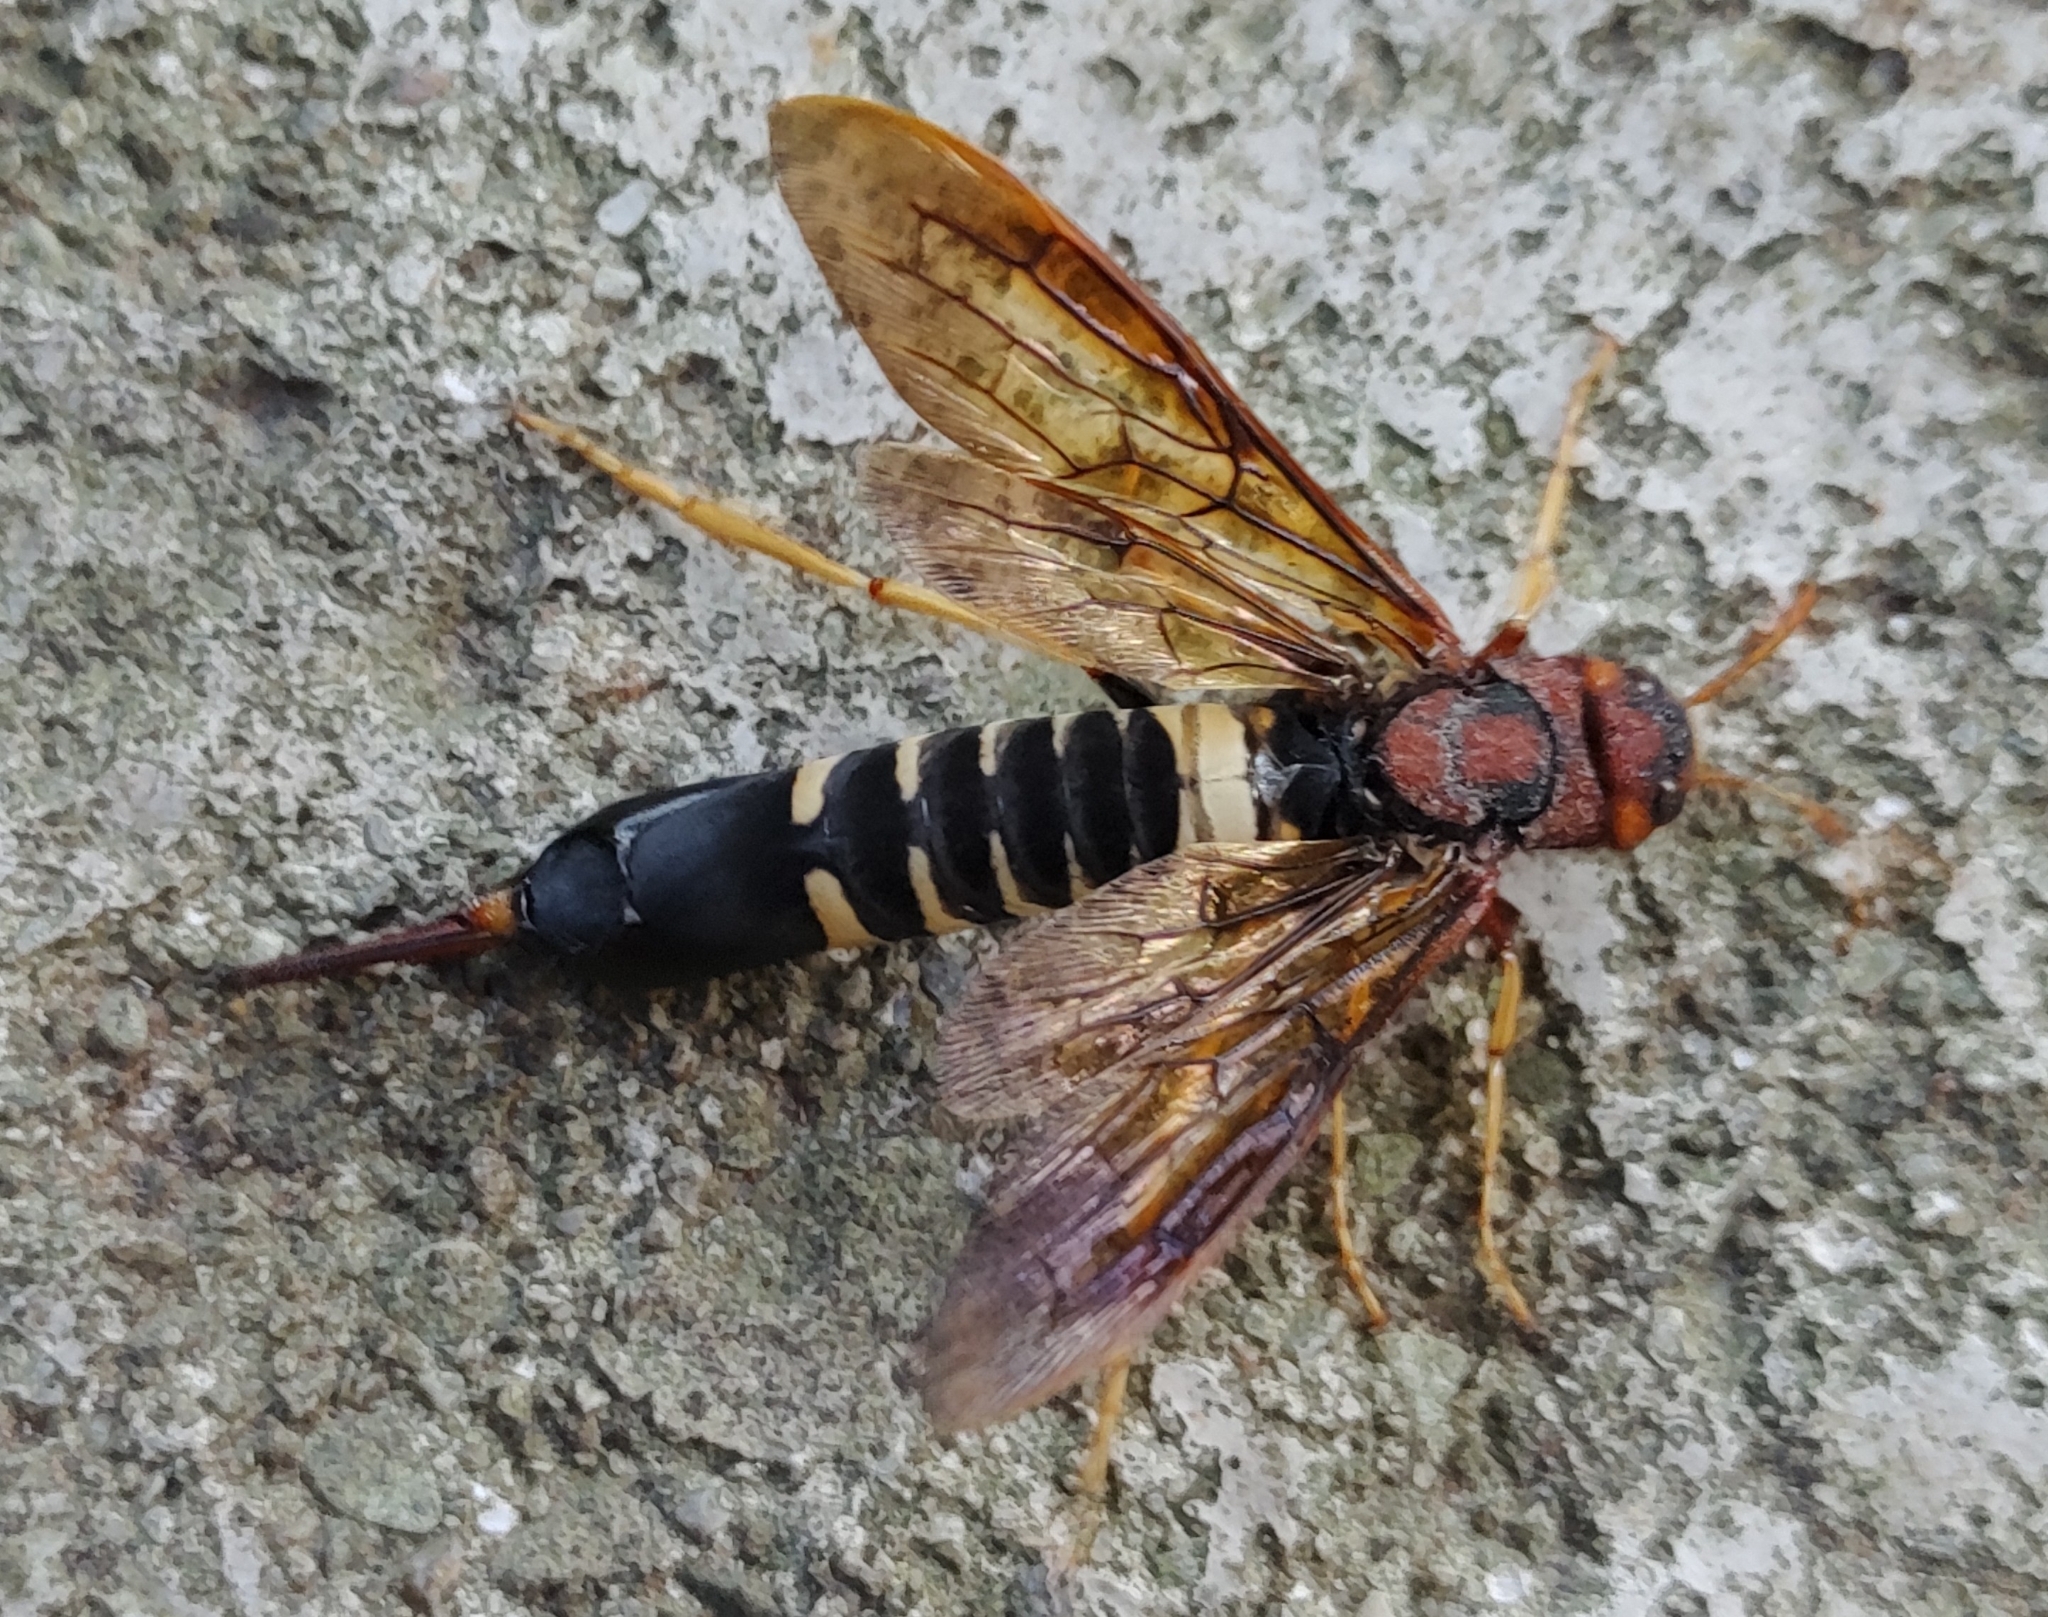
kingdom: Animalia
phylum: Arthropoda
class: Insecta
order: Hymenoptera
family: Siricidae
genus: Tremex
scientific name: Tremex columba
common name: Wasp
